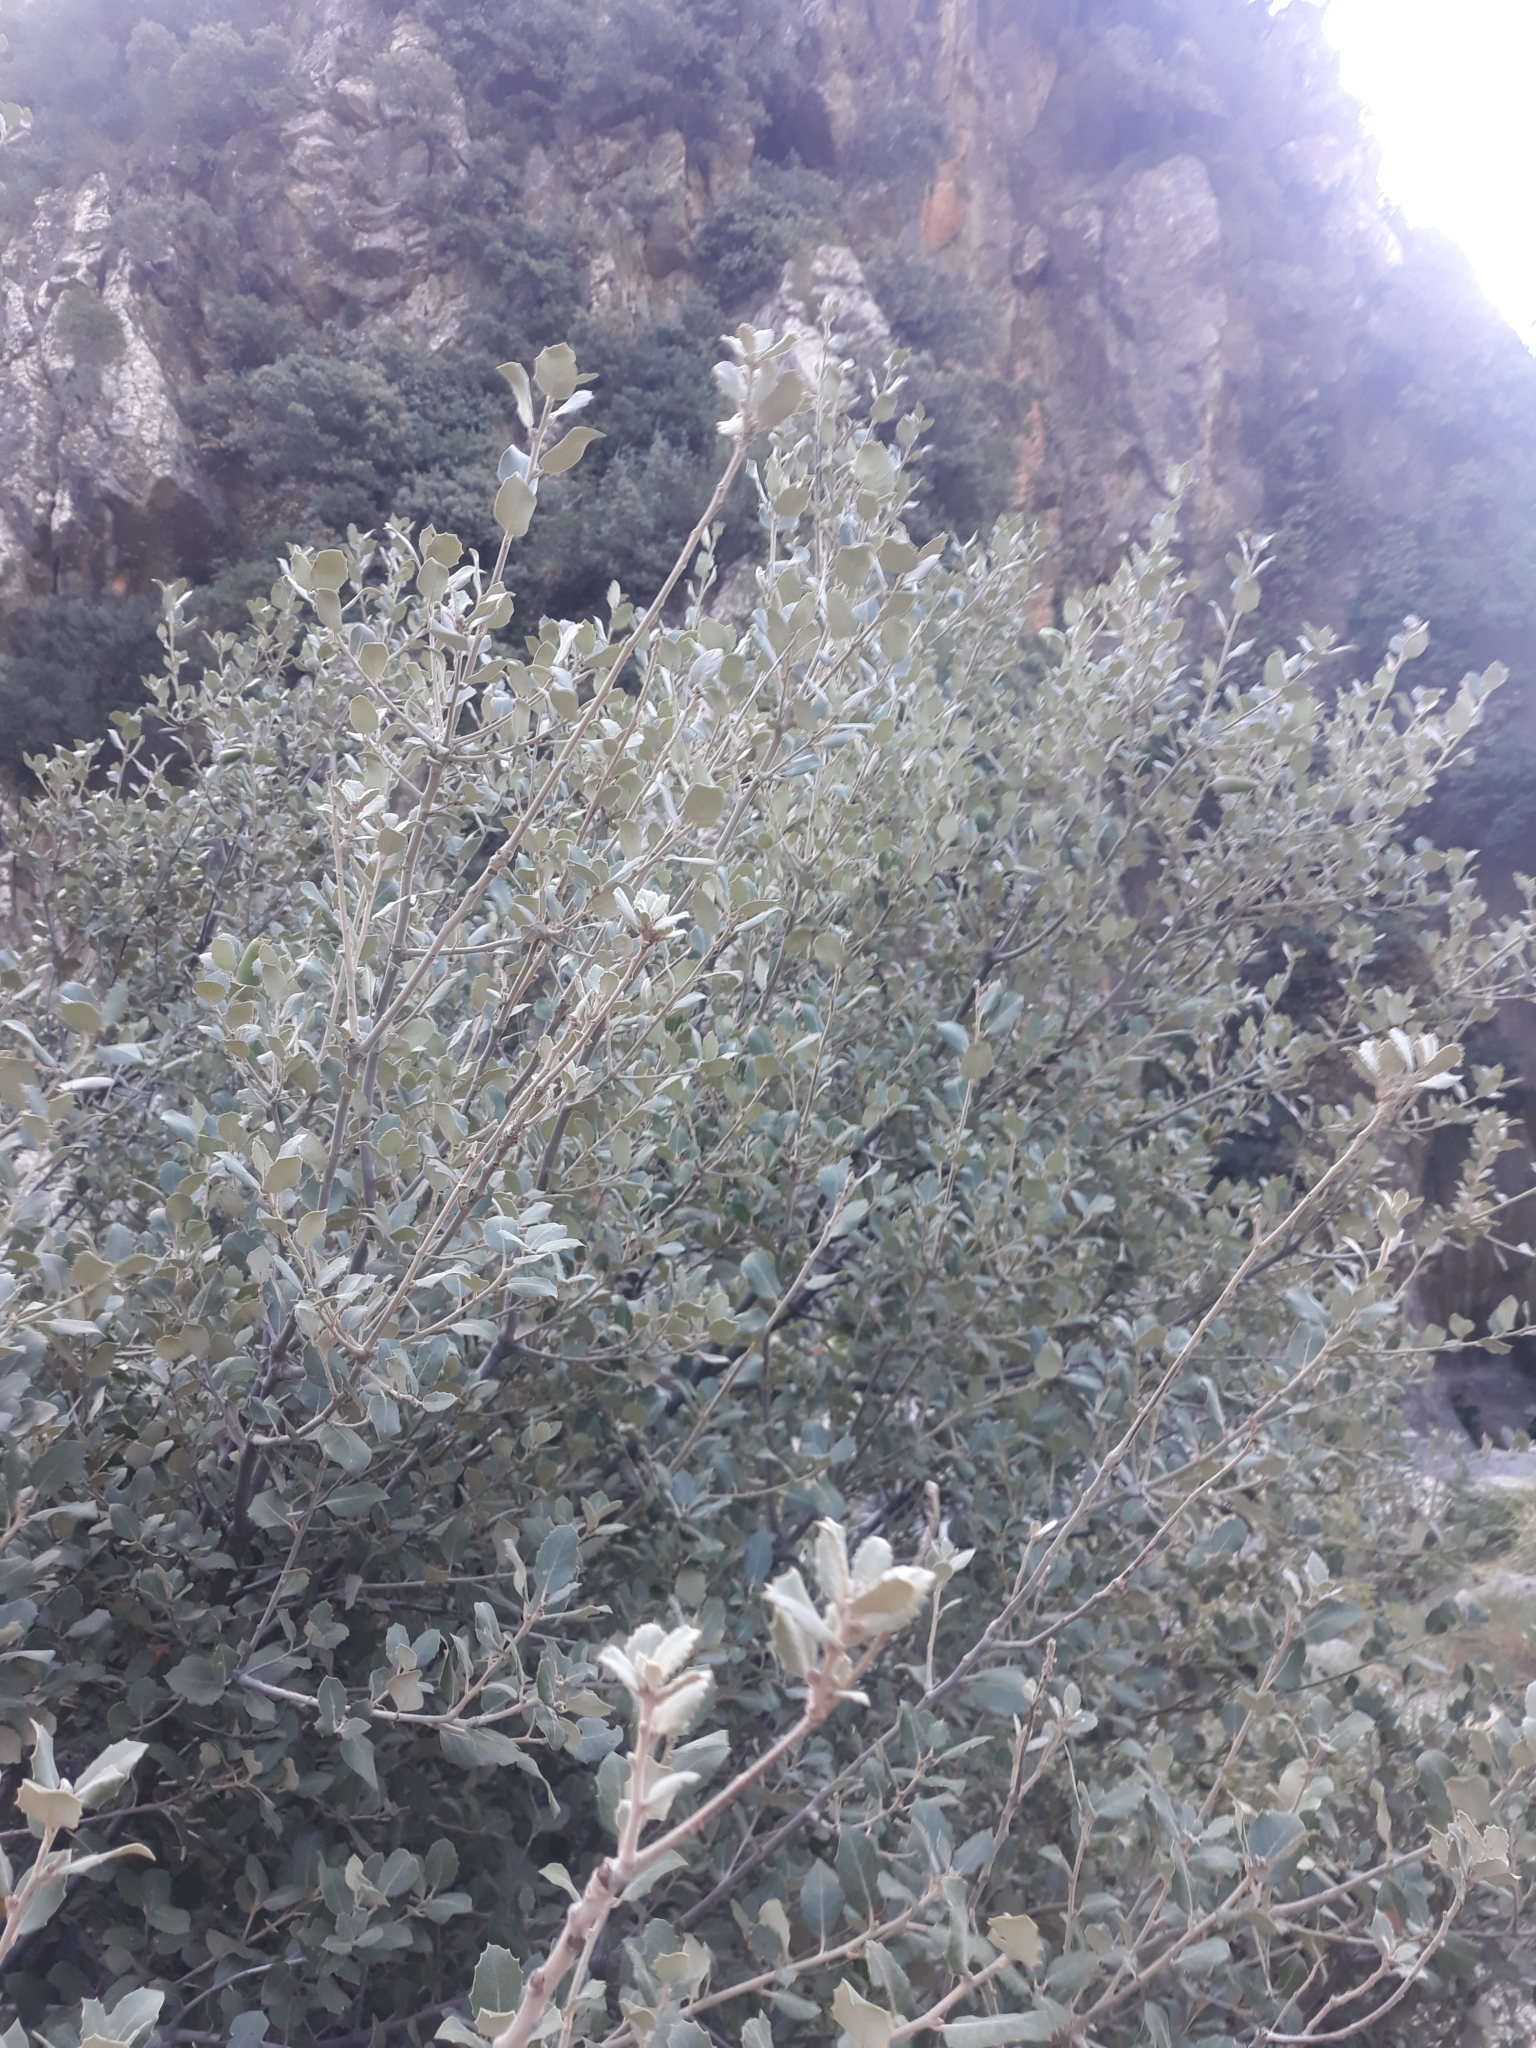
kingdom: Plantae
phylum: Tracheophyta
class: Magnoliopsida
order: Fagales
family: Fagaceae
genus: Quercus
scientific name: Quercus rotundifolia
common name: Holm oak
